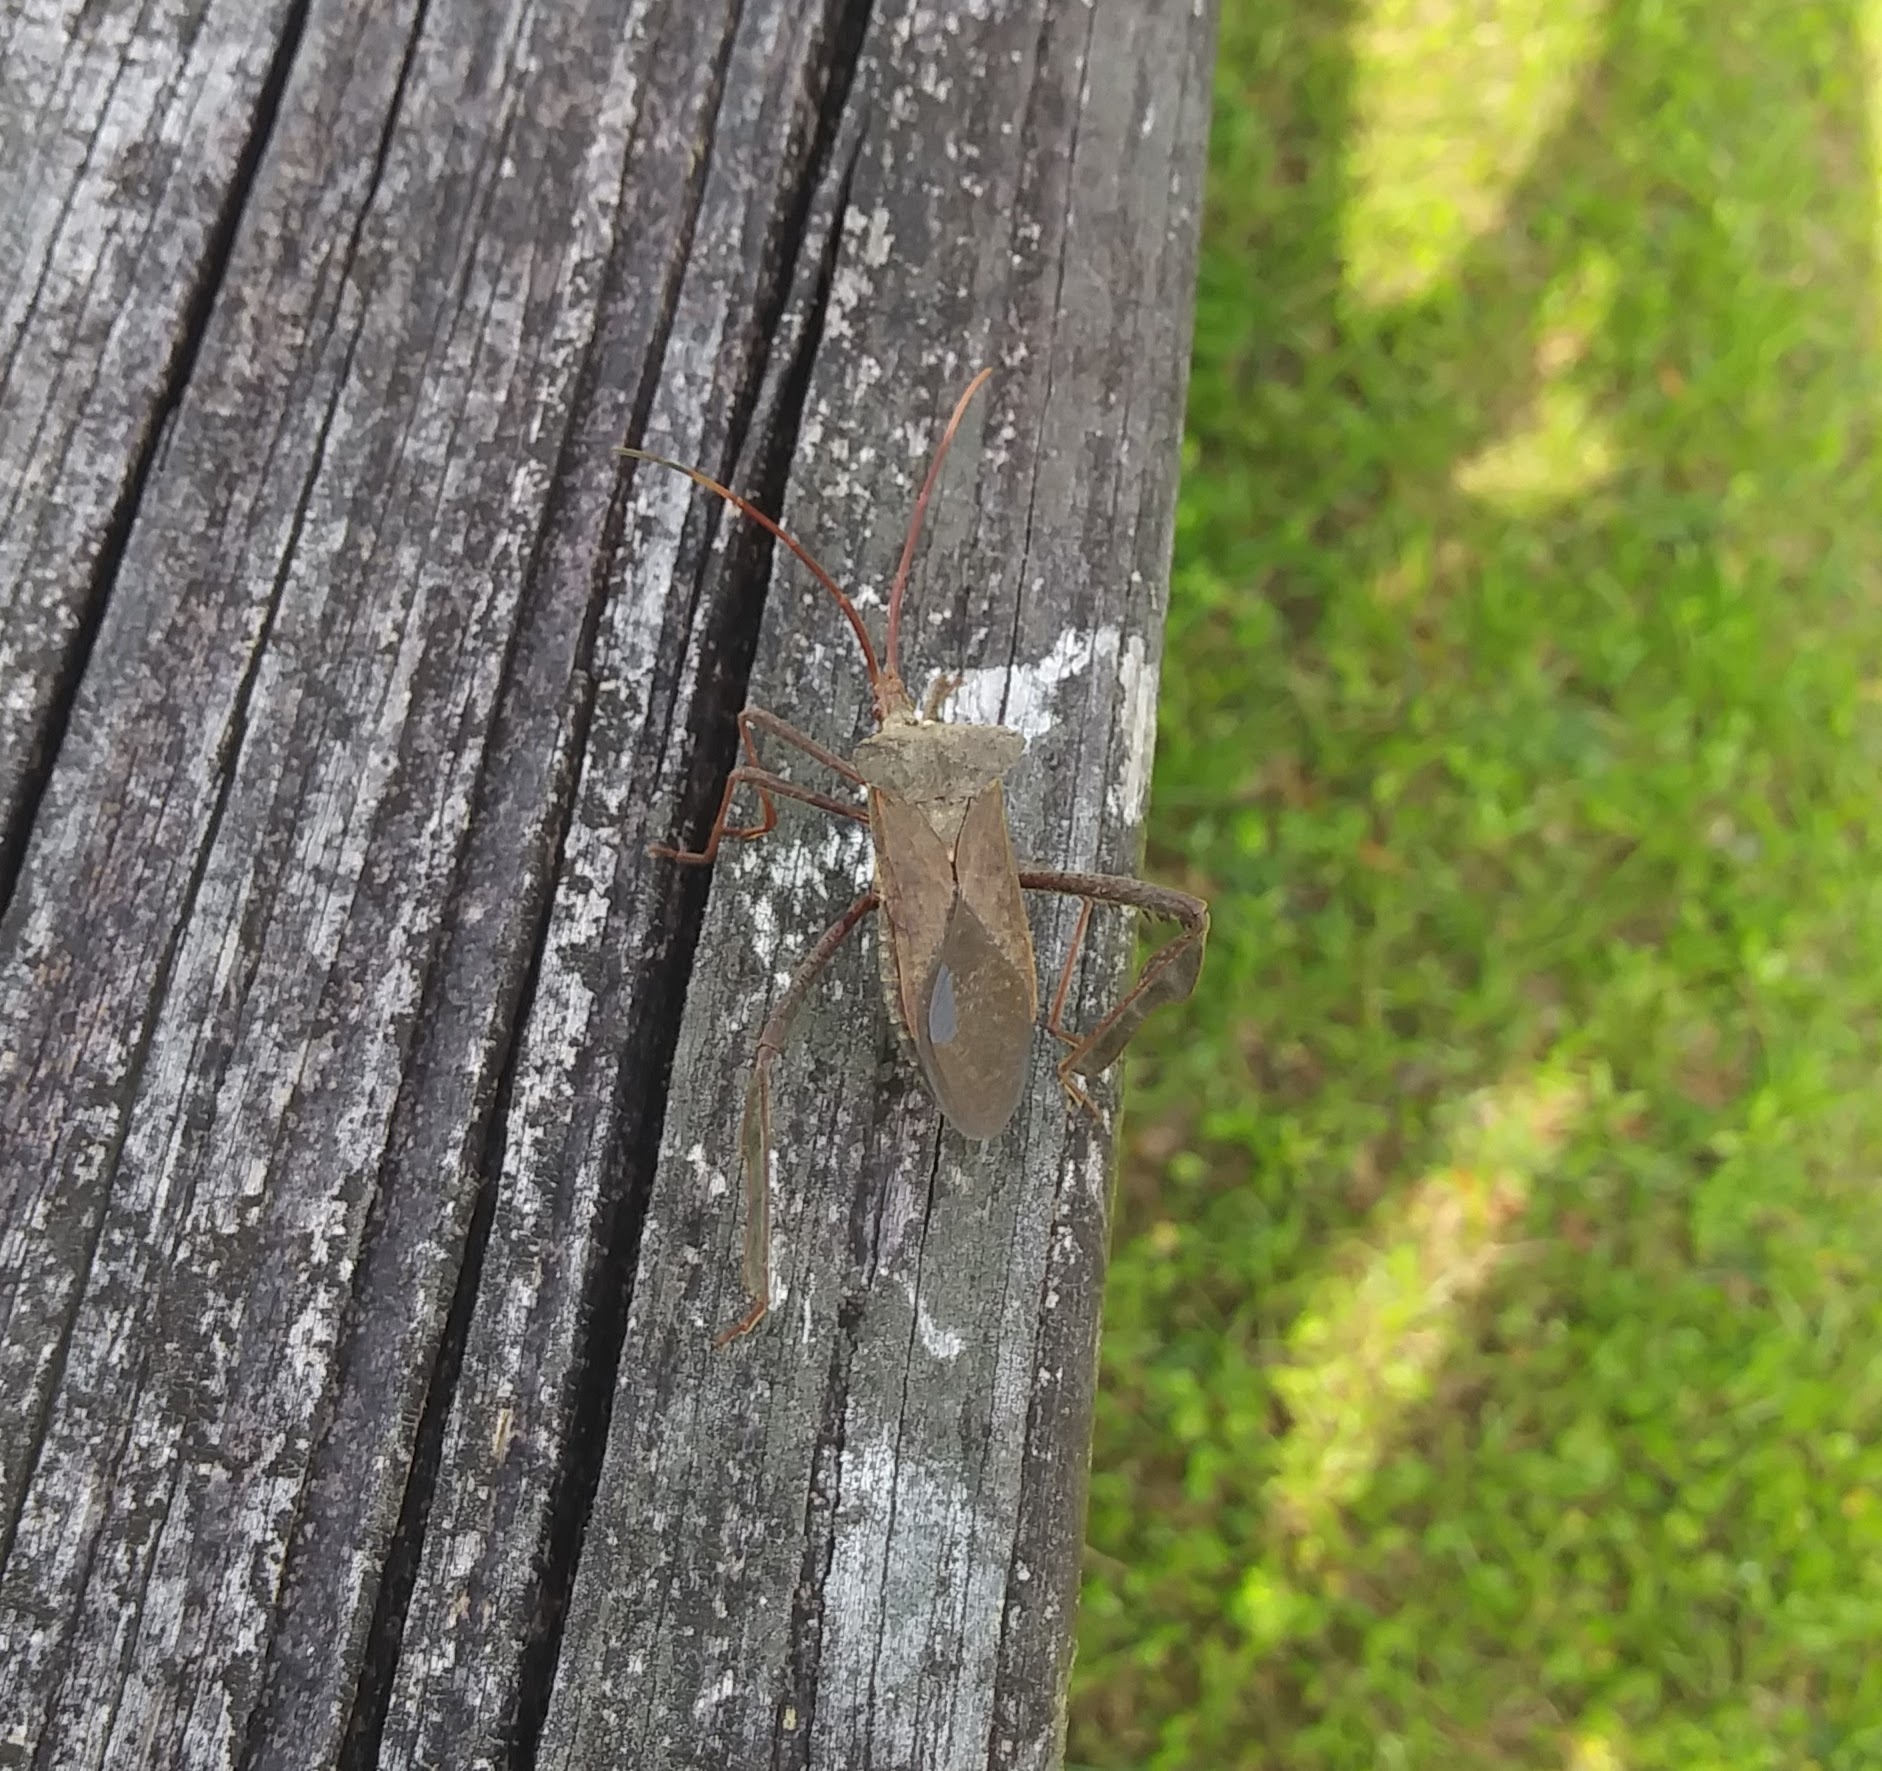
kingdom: Animalia
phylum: Arthropoda
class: Insecta
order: Hemiptera
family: Coreidae
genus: Acanthocephala
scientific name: Acanthocephala declivis
